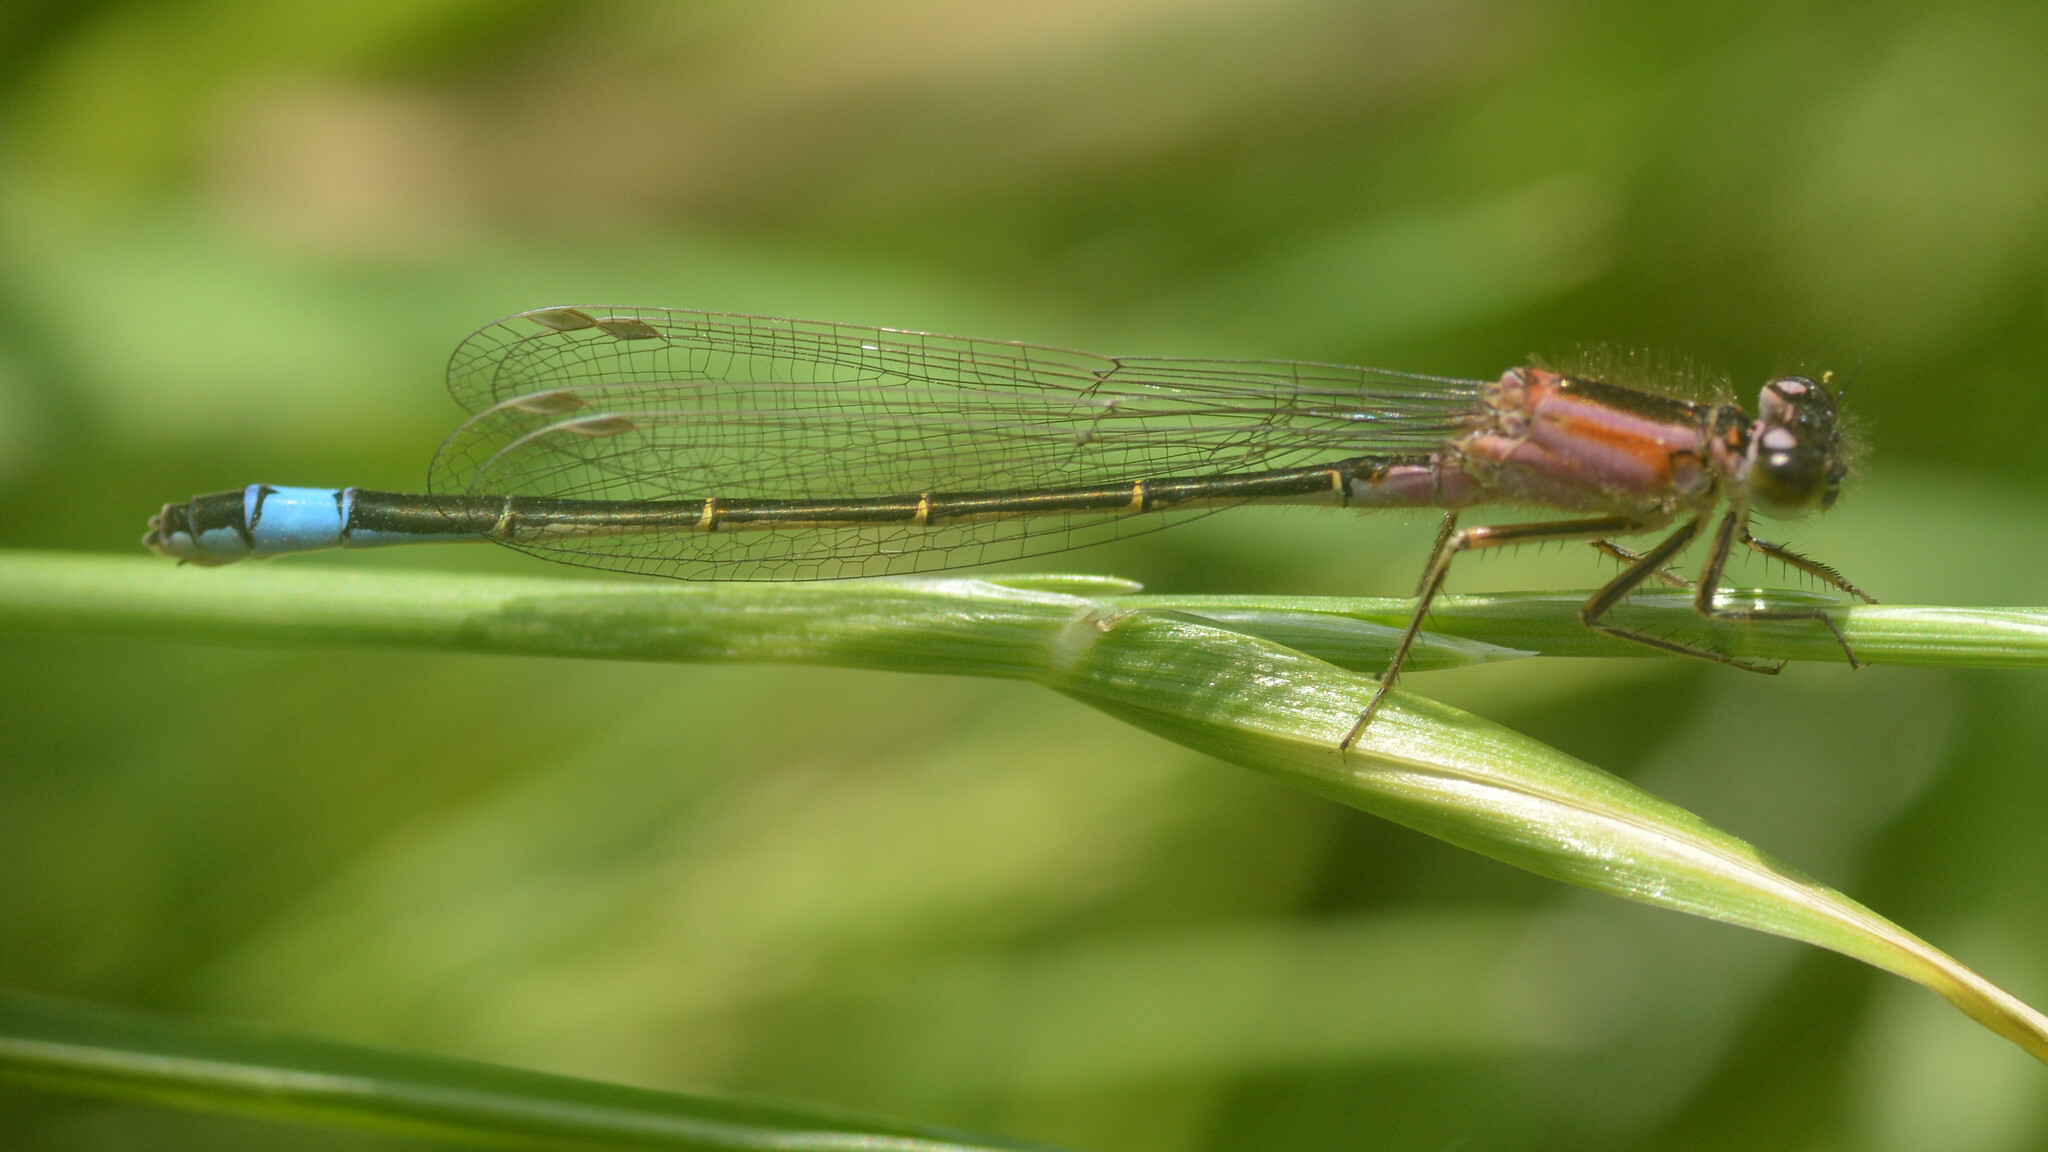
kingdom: Animalia
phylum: Arthropoda
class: Insecta
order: Odonata
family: Coenagrionidae
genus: Ischnura
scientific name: Ischnura elegans
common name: Blue-tailed damselfly
